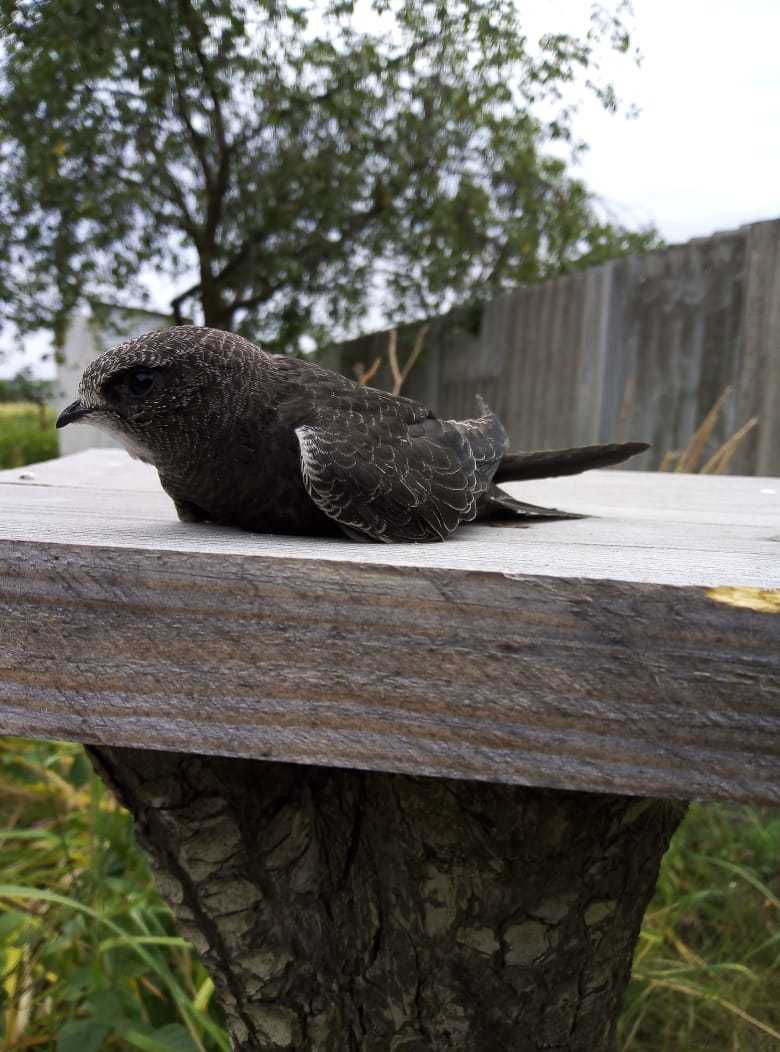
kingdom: Animalia
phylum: Chordata
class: Aves
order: Apodiformes
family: Apodidae
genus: Apus
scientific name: Apus apus
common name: Common swift
